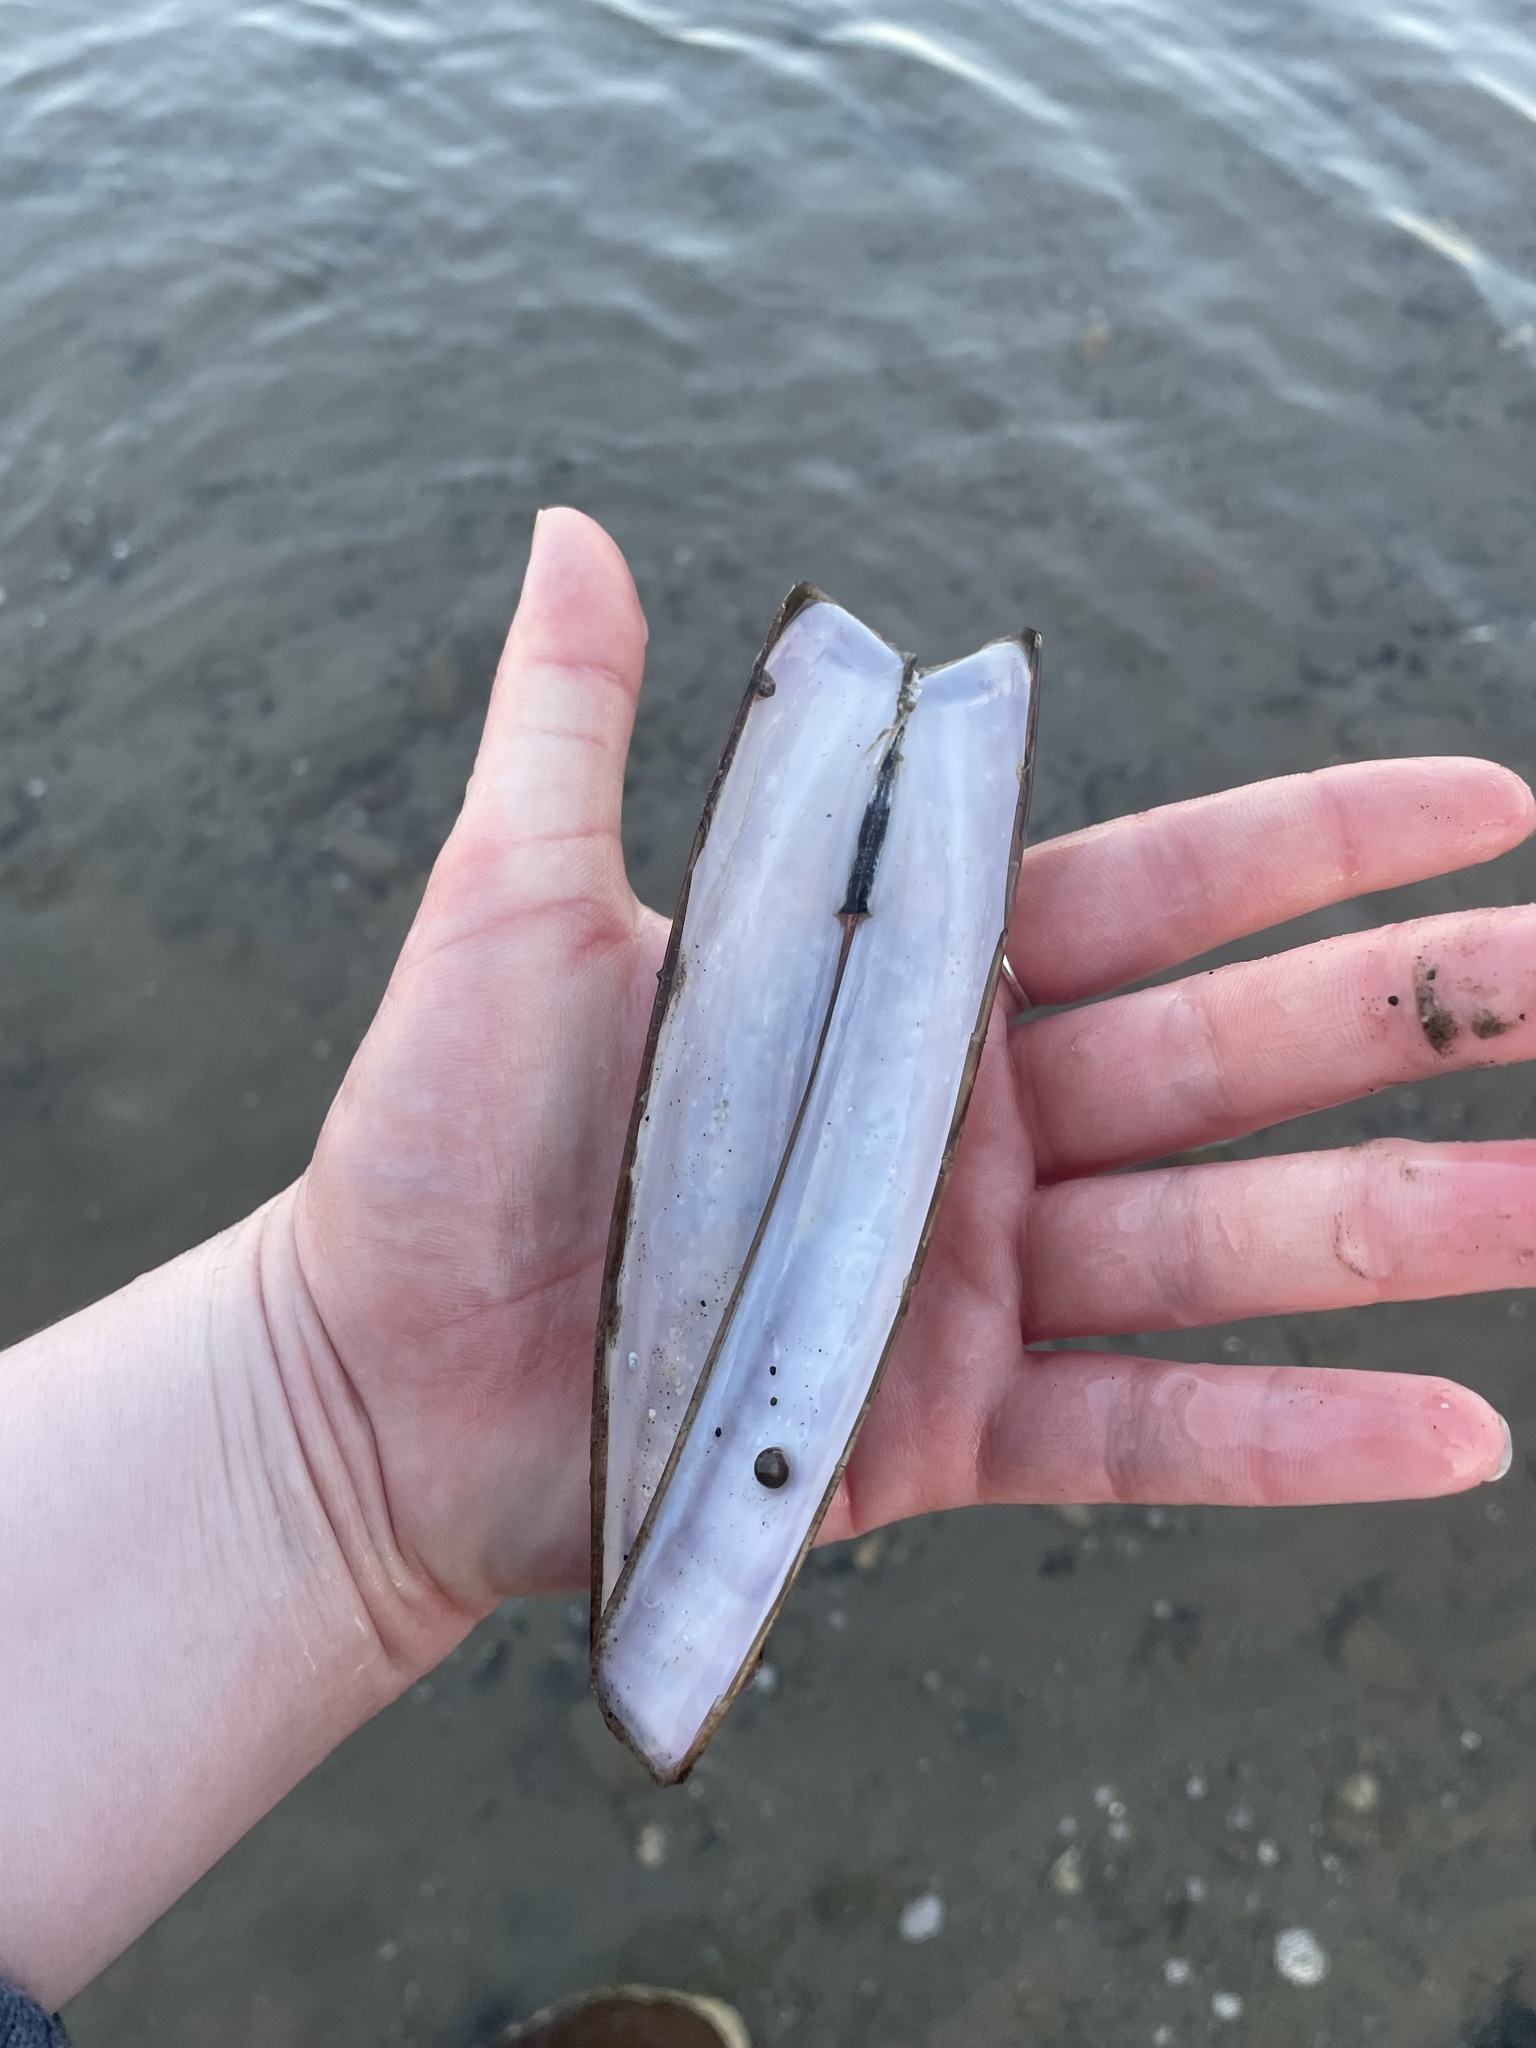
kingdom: Animalia
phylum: Mollusca
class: Bivalvia
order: Adapedonta
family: Pharidae
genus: Ensis
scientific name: Ensis leei
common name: American jack knife clam
